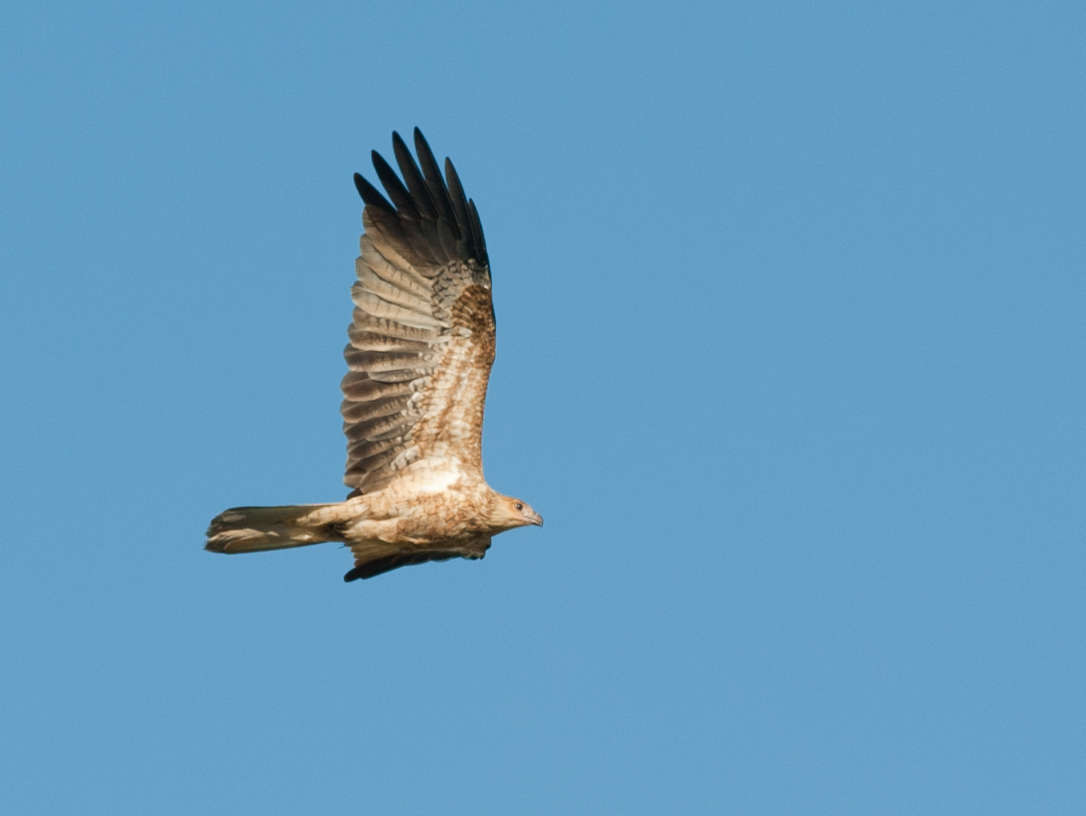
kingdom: Animalia
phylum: Chordata
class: Aves
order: Accipitriformes
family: Accipitridae
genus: Haliastur
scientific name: Haliastur sphenurus
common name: Whistling kite
